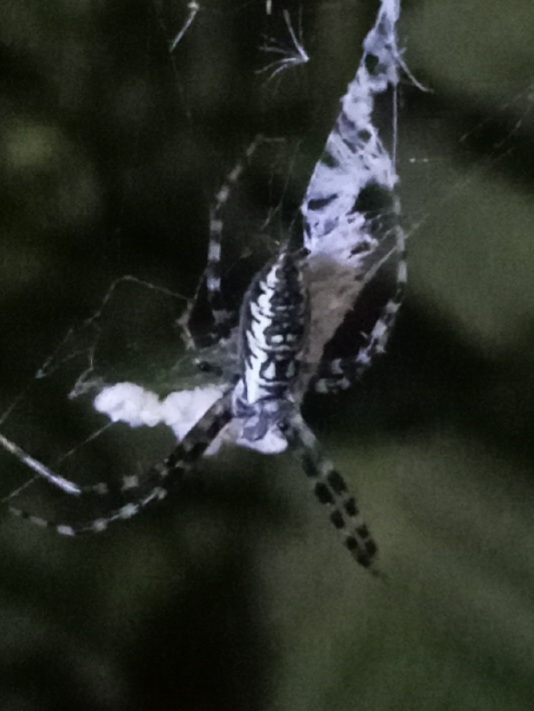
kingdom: Animalia
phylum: Arthropoda
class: Arachnida
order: Araneae
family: Araneidae
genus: Argiope
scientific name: Argiope aurantia
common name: Orb weavers
